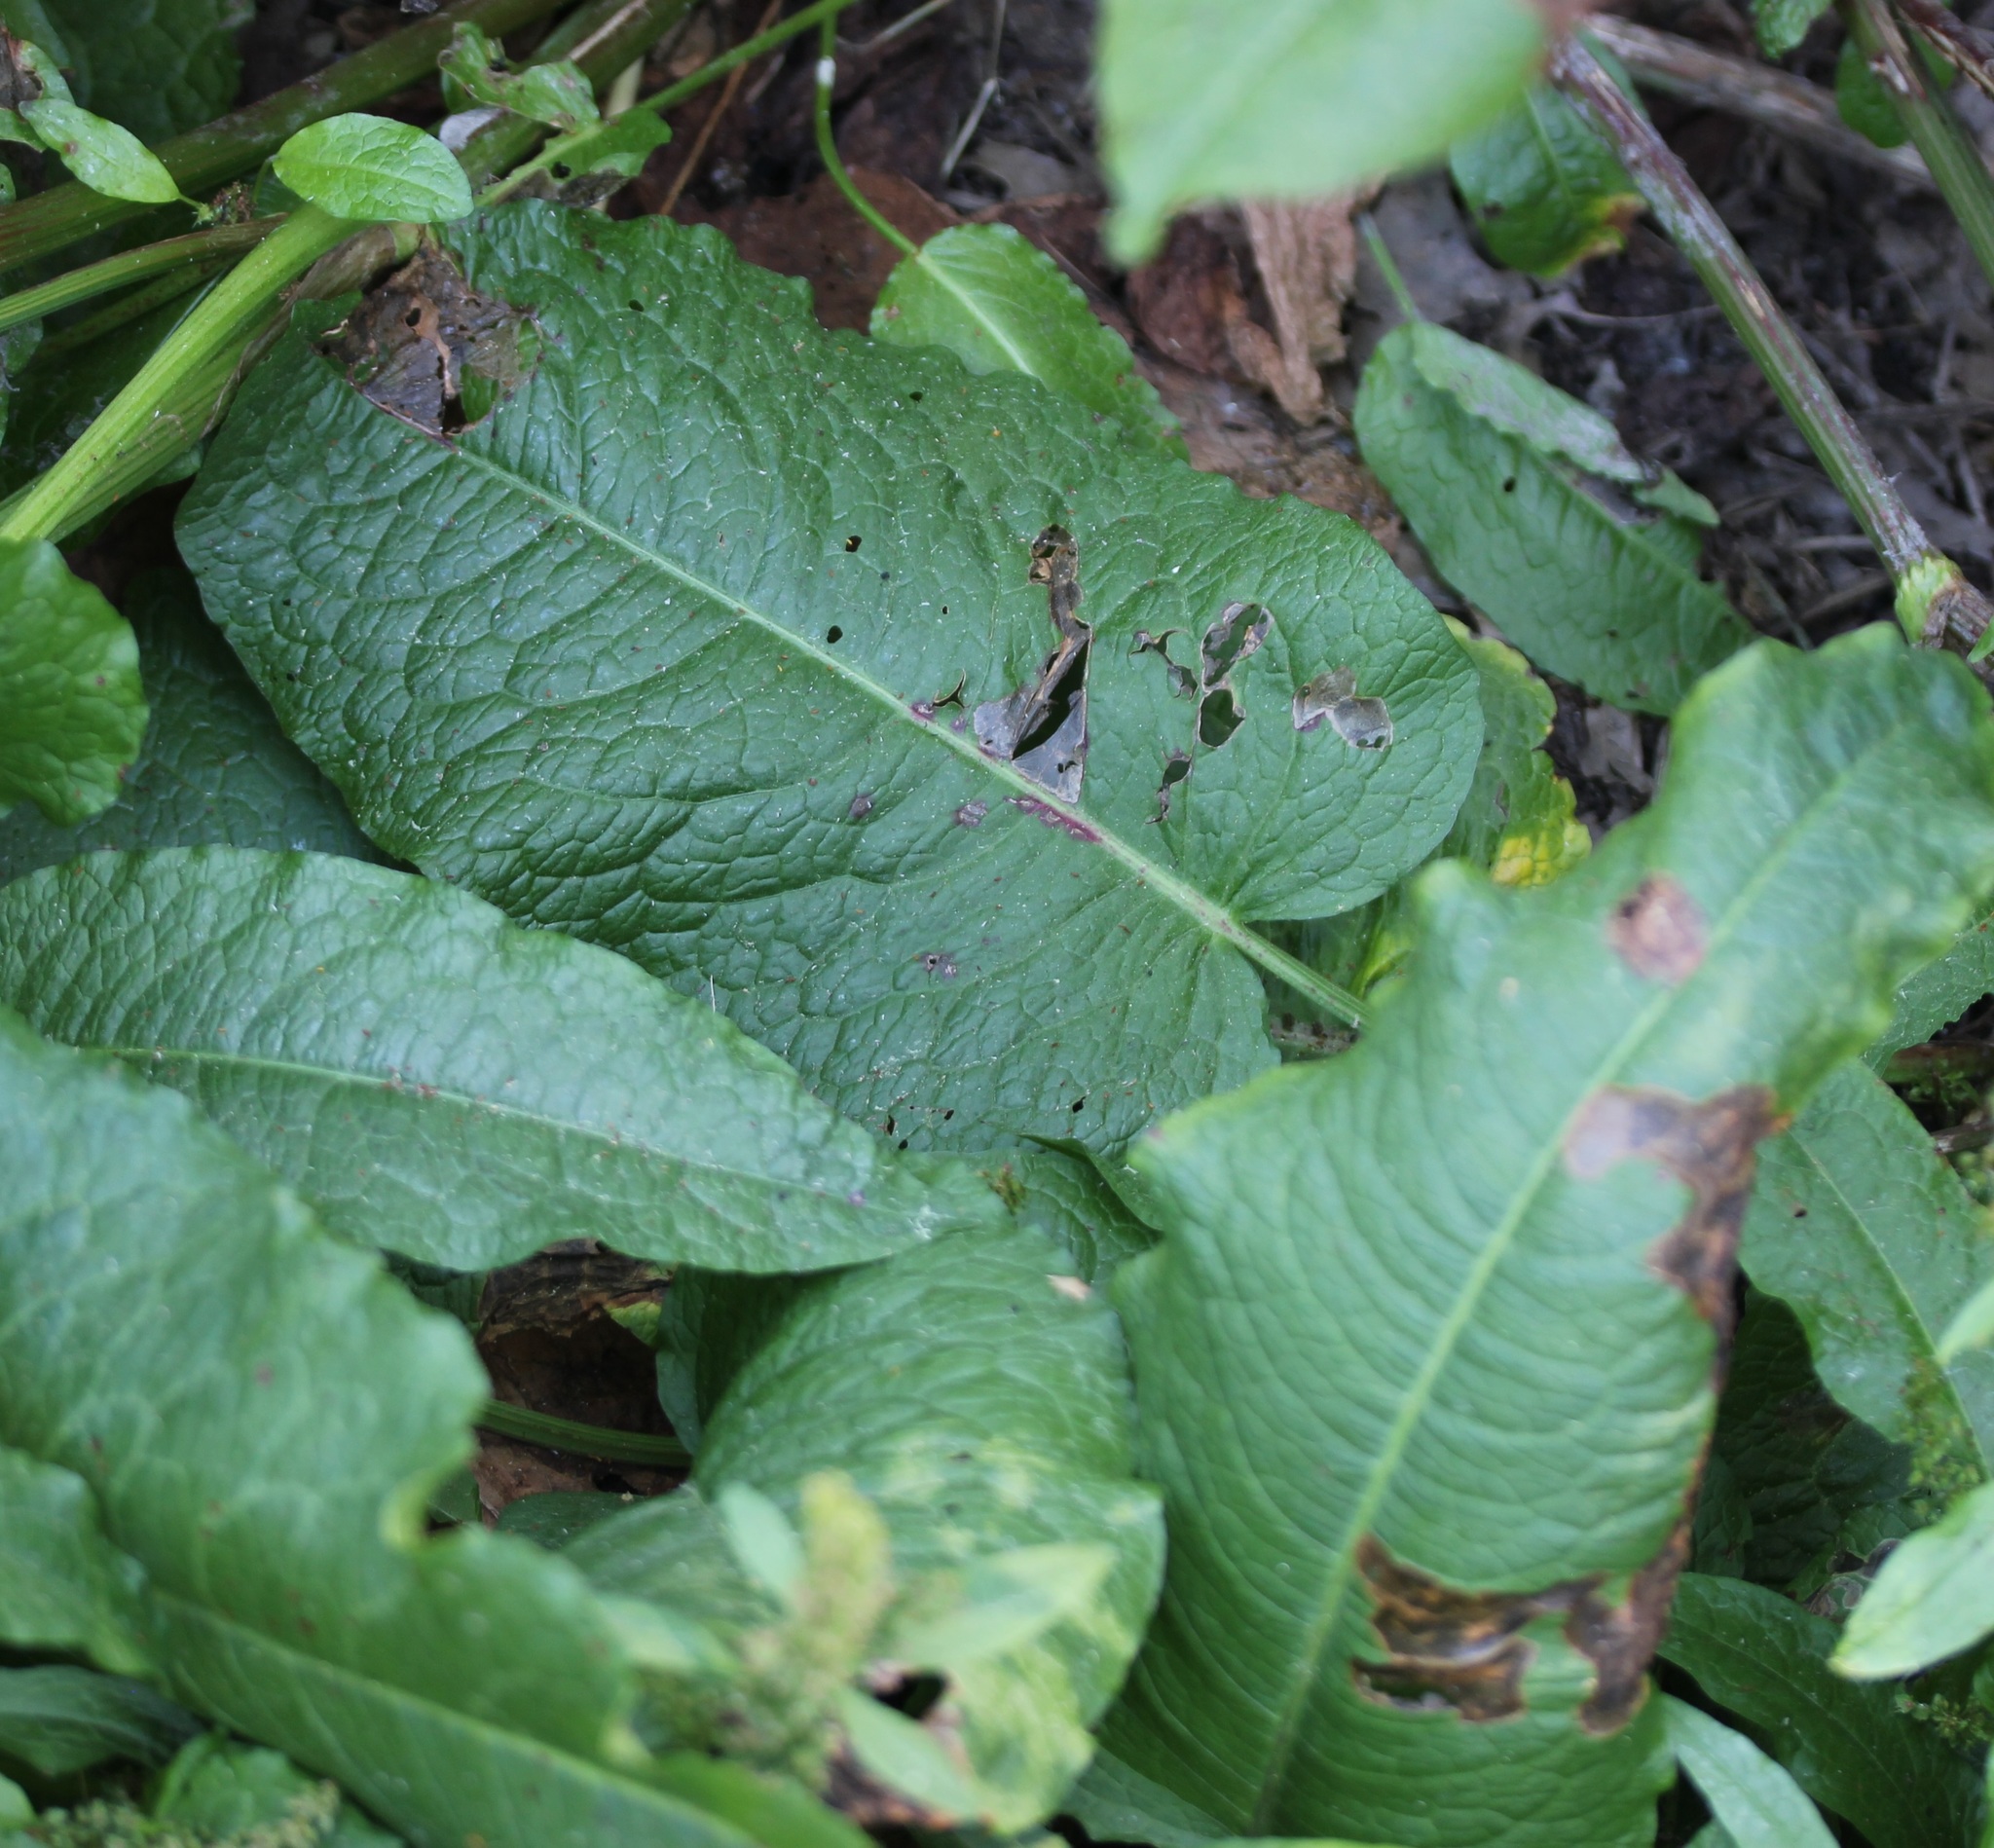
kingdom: Plantae
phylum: Tracheophyta
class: Magnoliopsida
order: Caryophyllales
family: Polygonaceae
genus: Rumex
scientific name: Rumex obtusifolius
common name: Bitter dock
